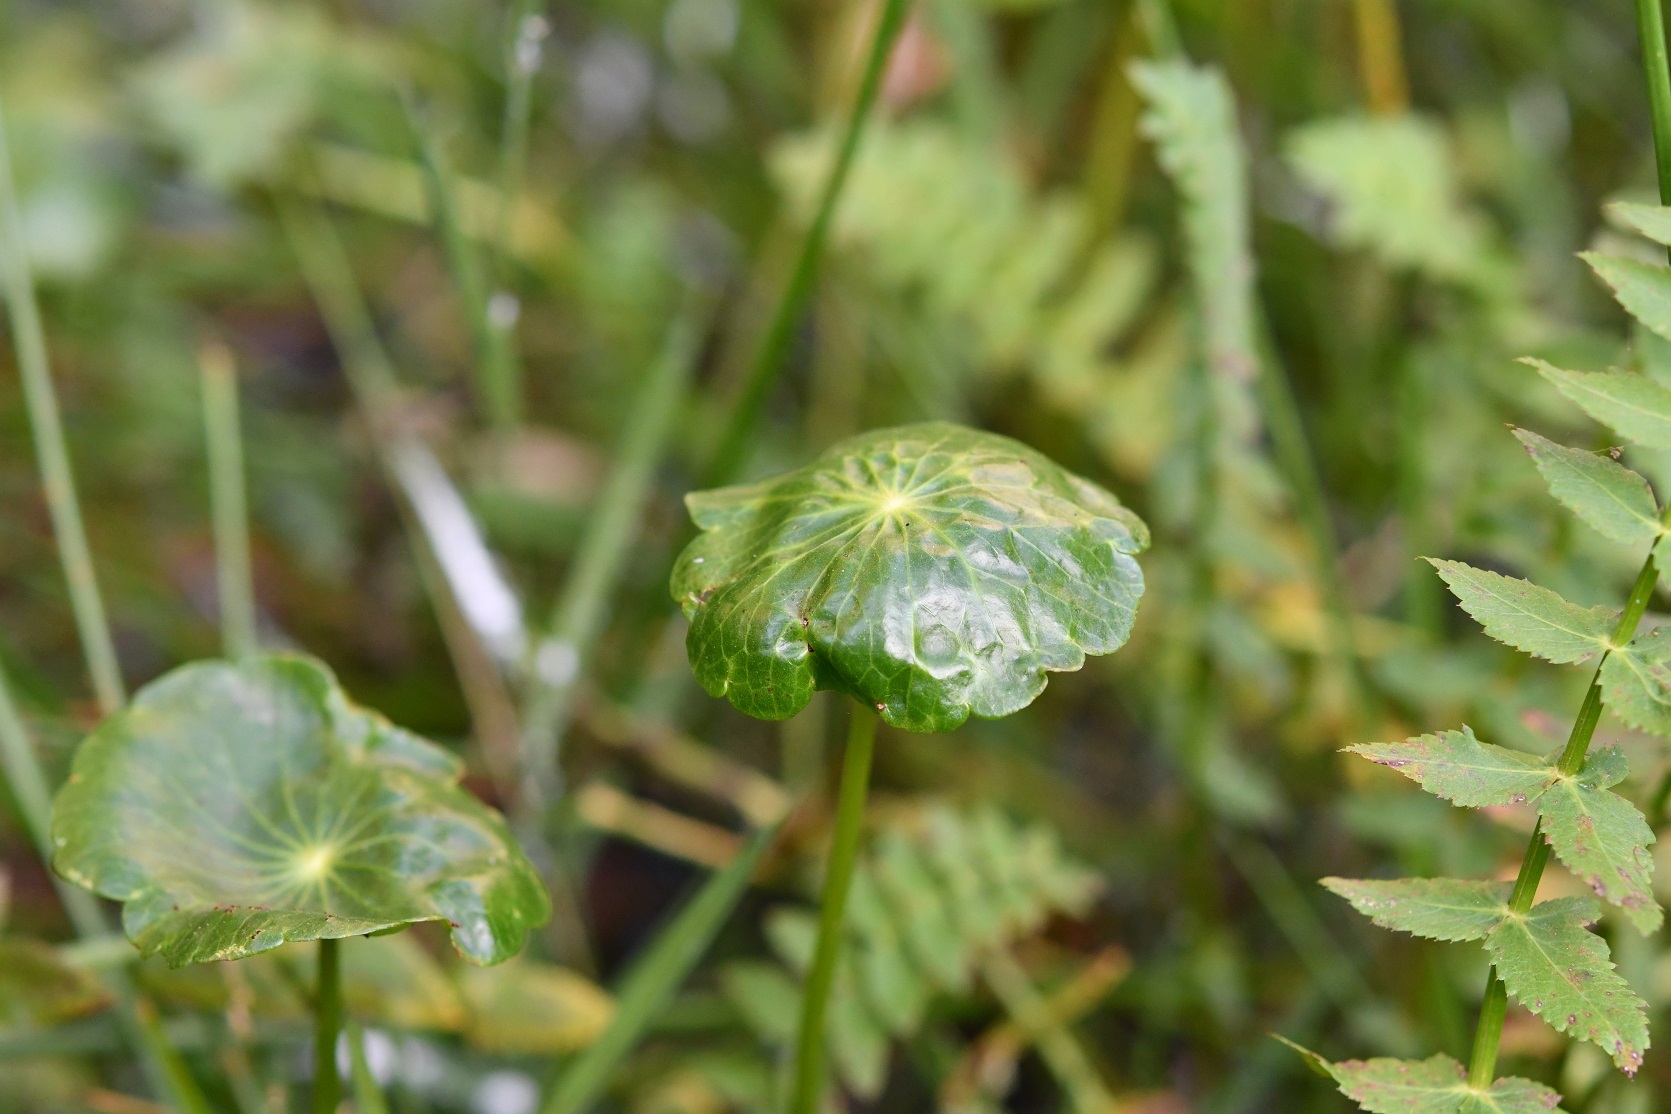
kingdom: Plantae
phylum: Tracheophyta
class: Magnoliopsida
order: Apiales
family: Araliaceae
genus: Hydrocotyle
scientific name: Hydrocotyle umbellata
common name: Water pennywort
